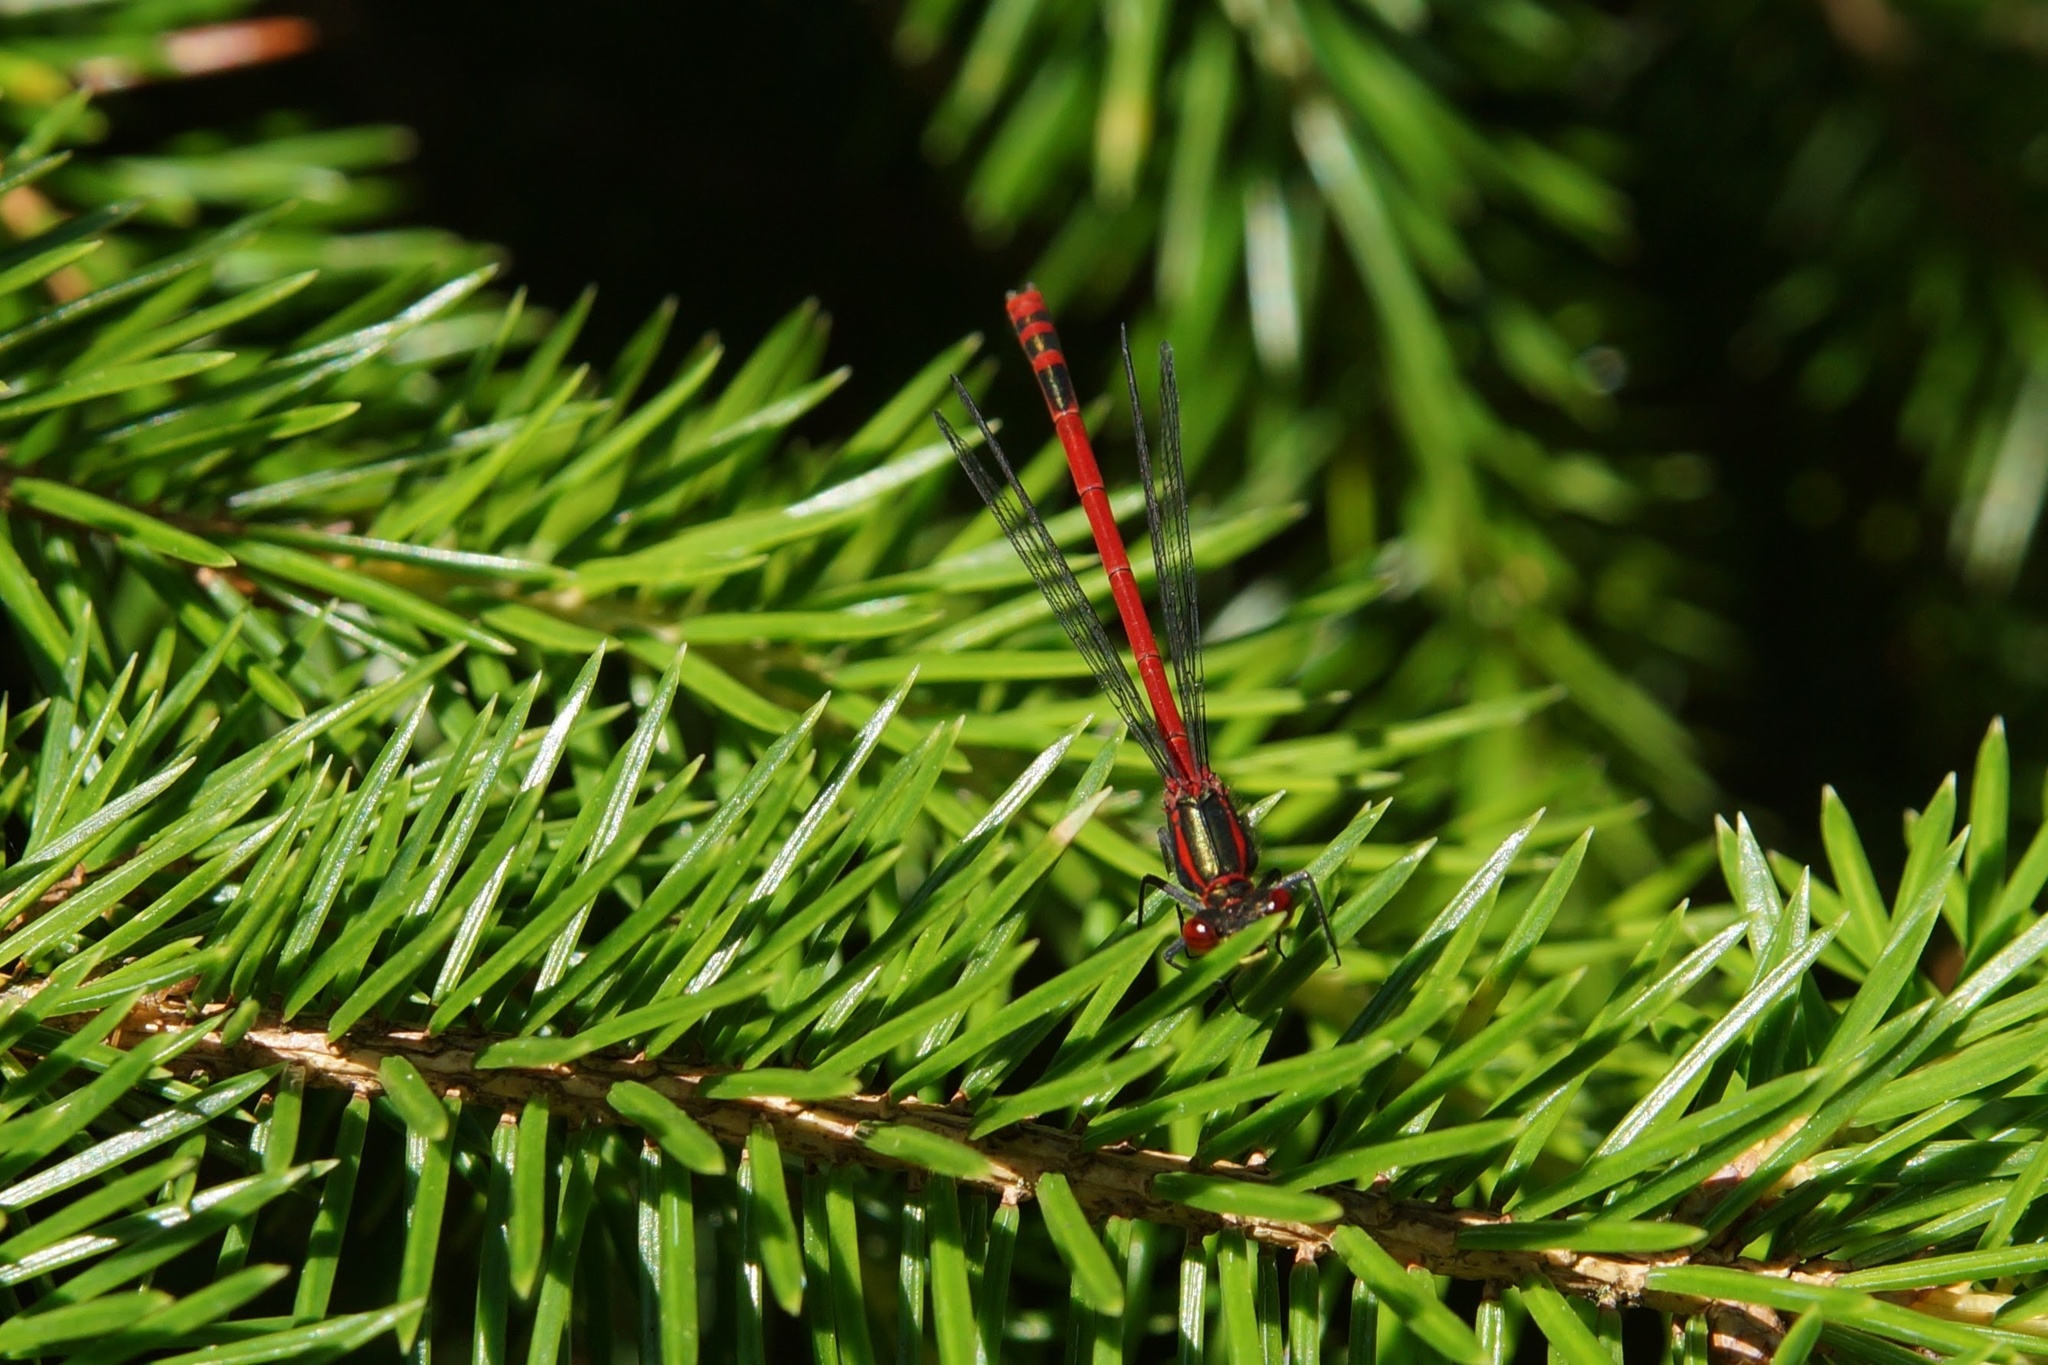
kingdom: Animalia
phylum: Arthropoda
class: Insecta
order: Odonata
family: Coenagrionidae
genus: Pyrrhosoma
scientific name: Pyrrhosoma nymphula
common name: Large red damsel
